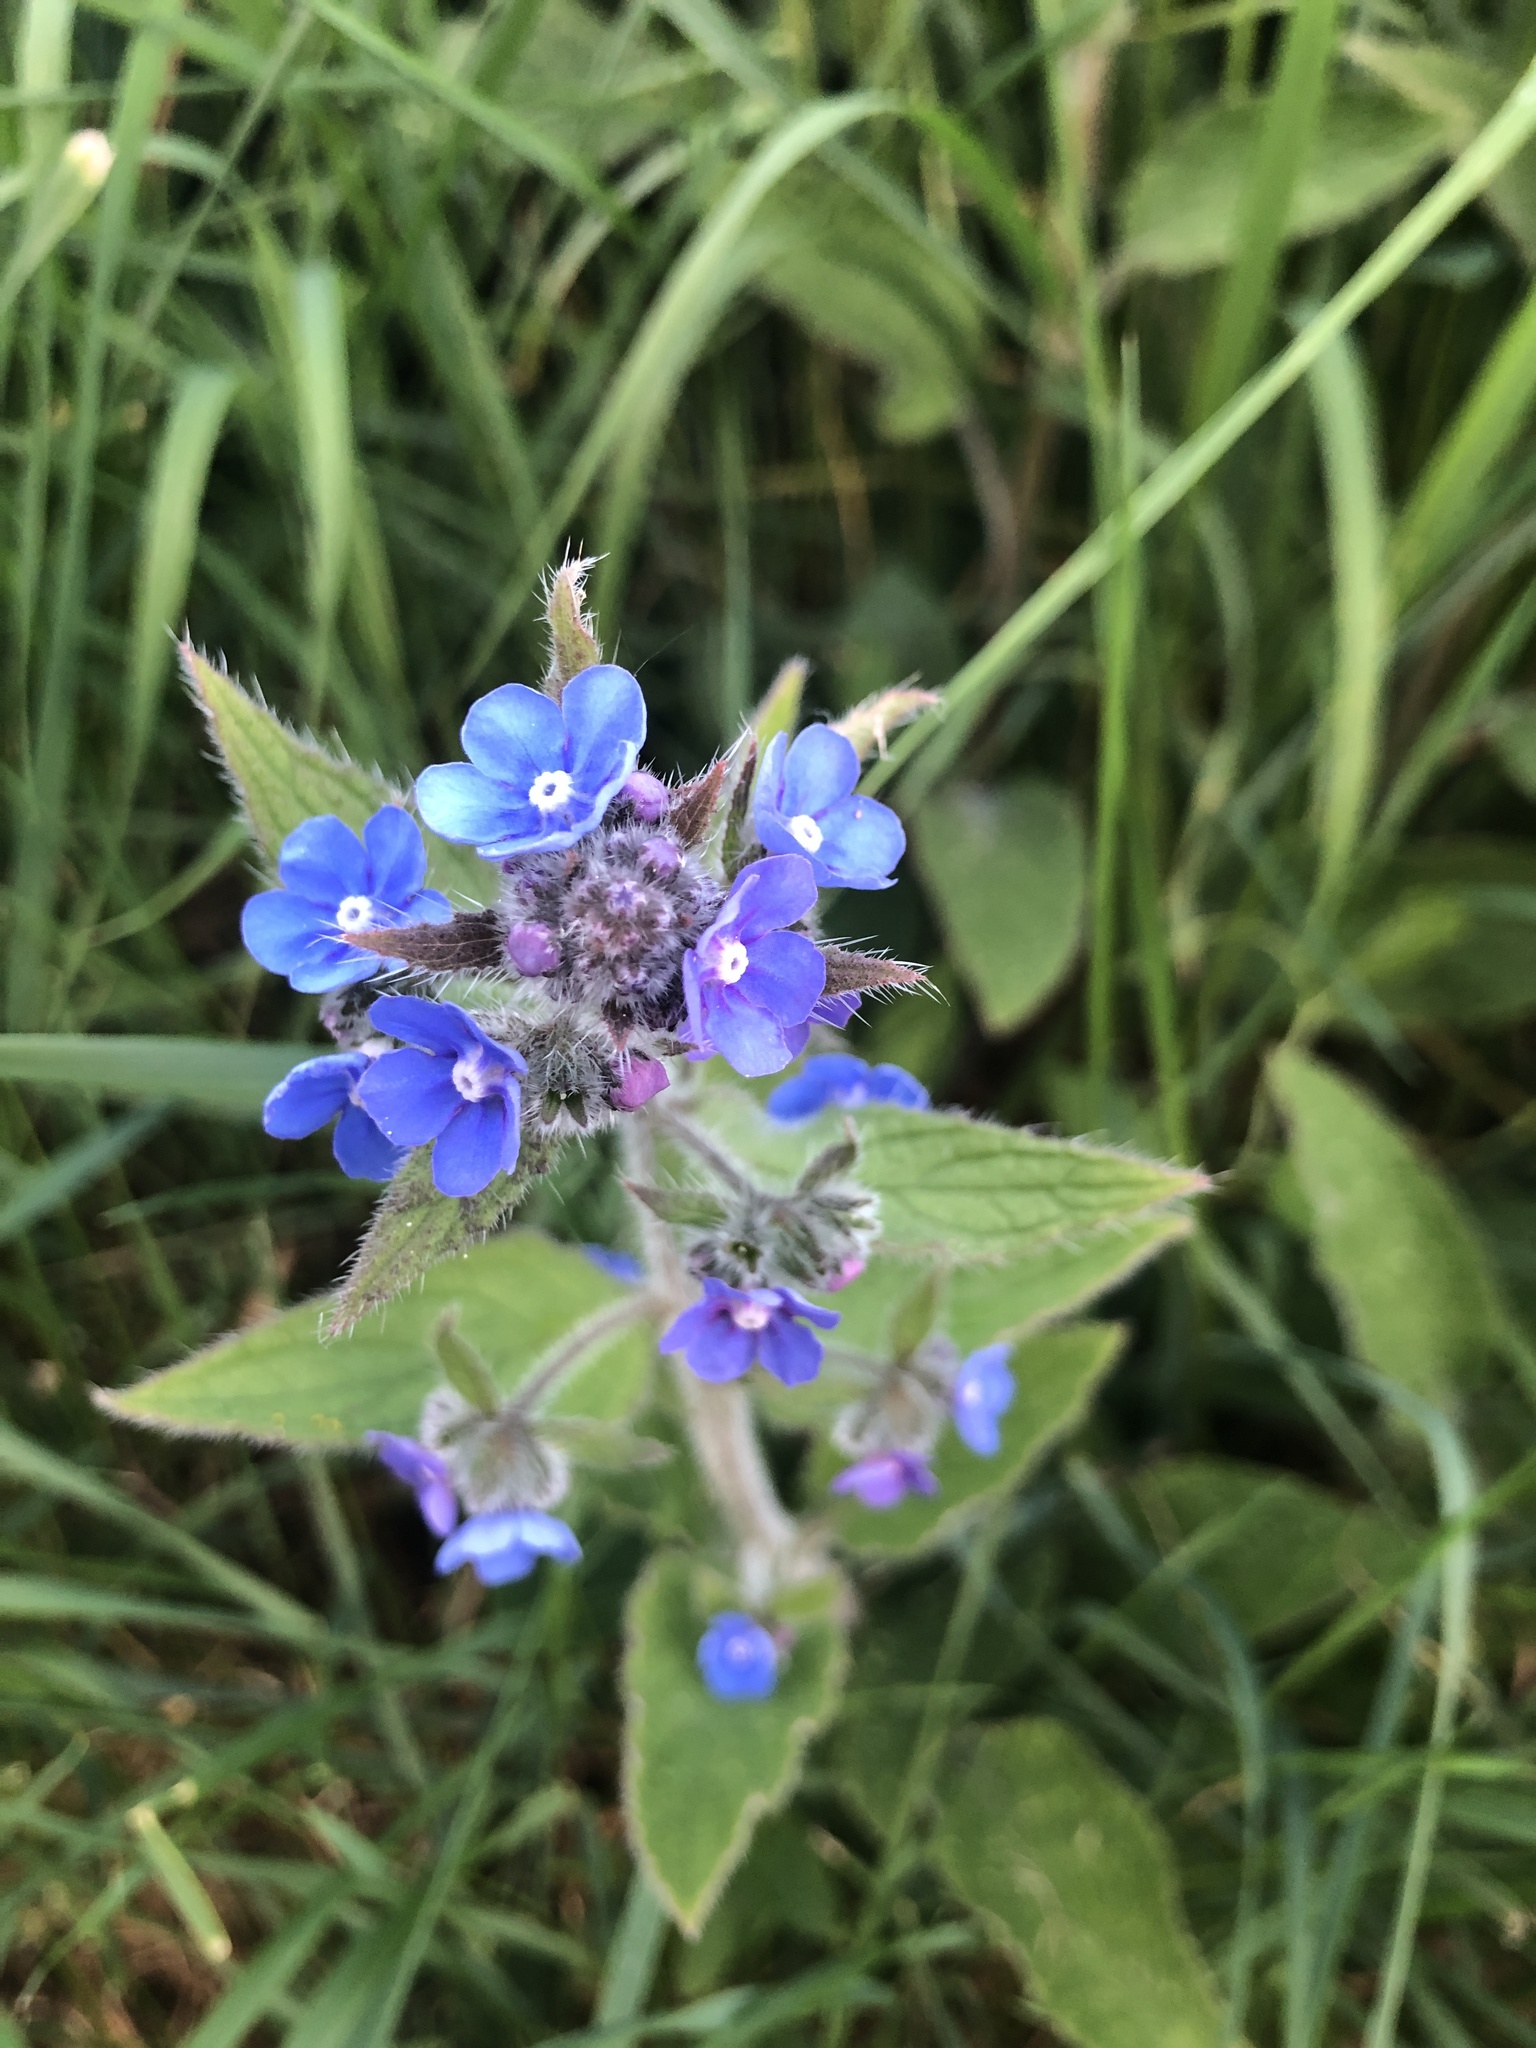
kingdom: Plantae
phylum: Tracheophyta
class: Magnoliopsida
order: Boraginales
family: Boraginaceae
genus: Pentaglottis
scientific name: Pentaglottis sempervirens
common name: Green alkanet
